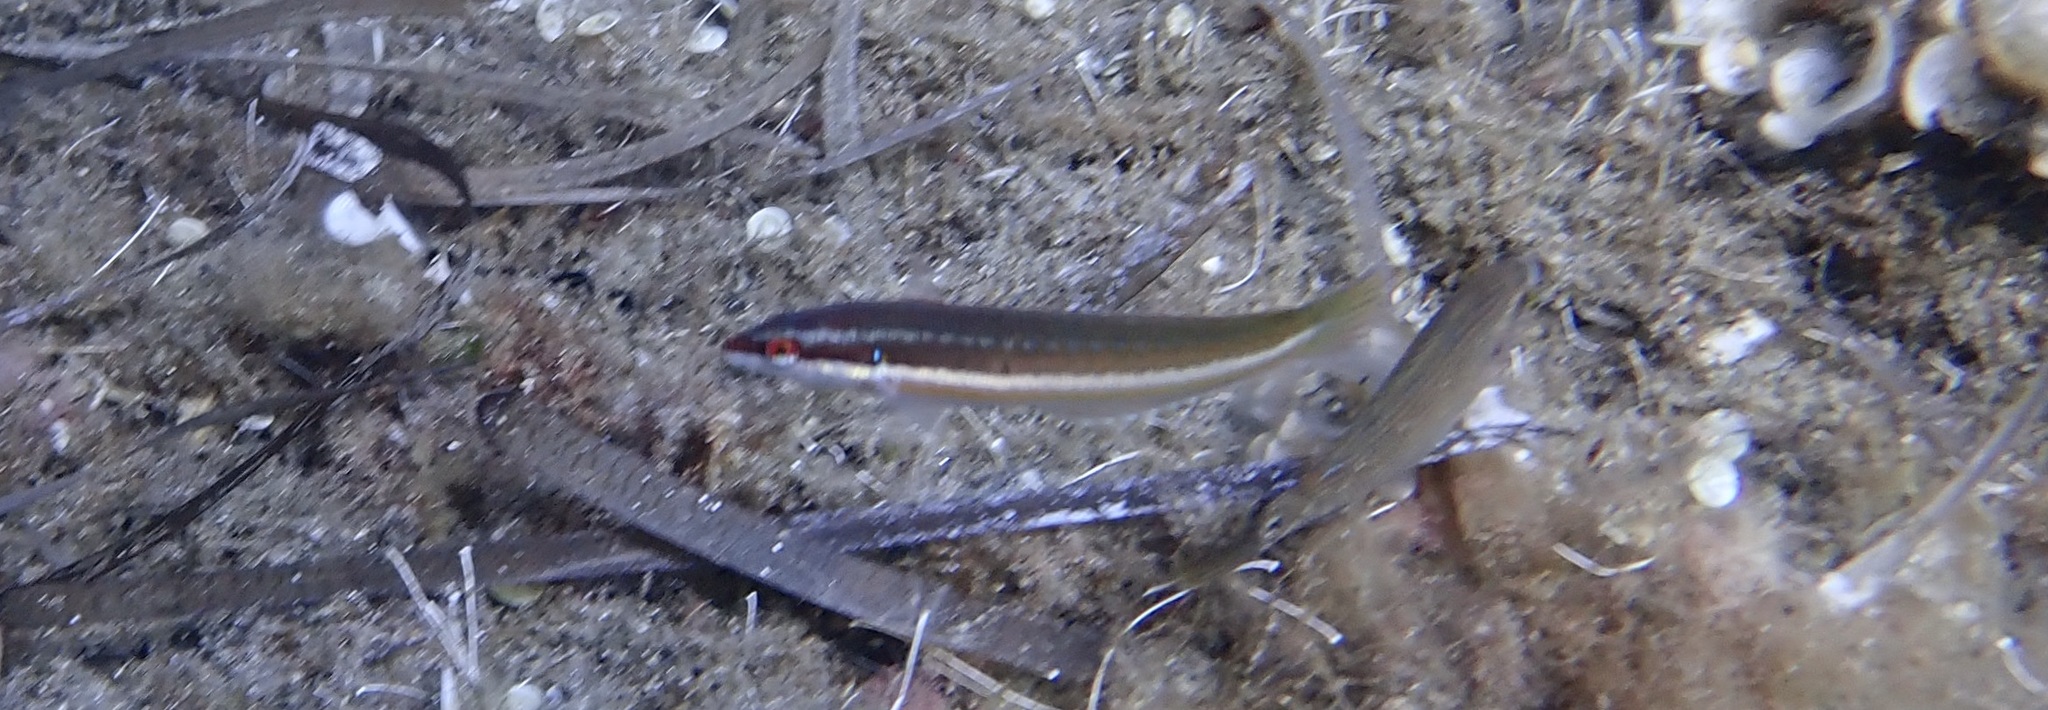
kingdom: Animalia
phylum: Chordata
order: Perciformes
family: Labridae
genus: Coris
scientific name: Coris julis
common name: Rainbow wrasse
